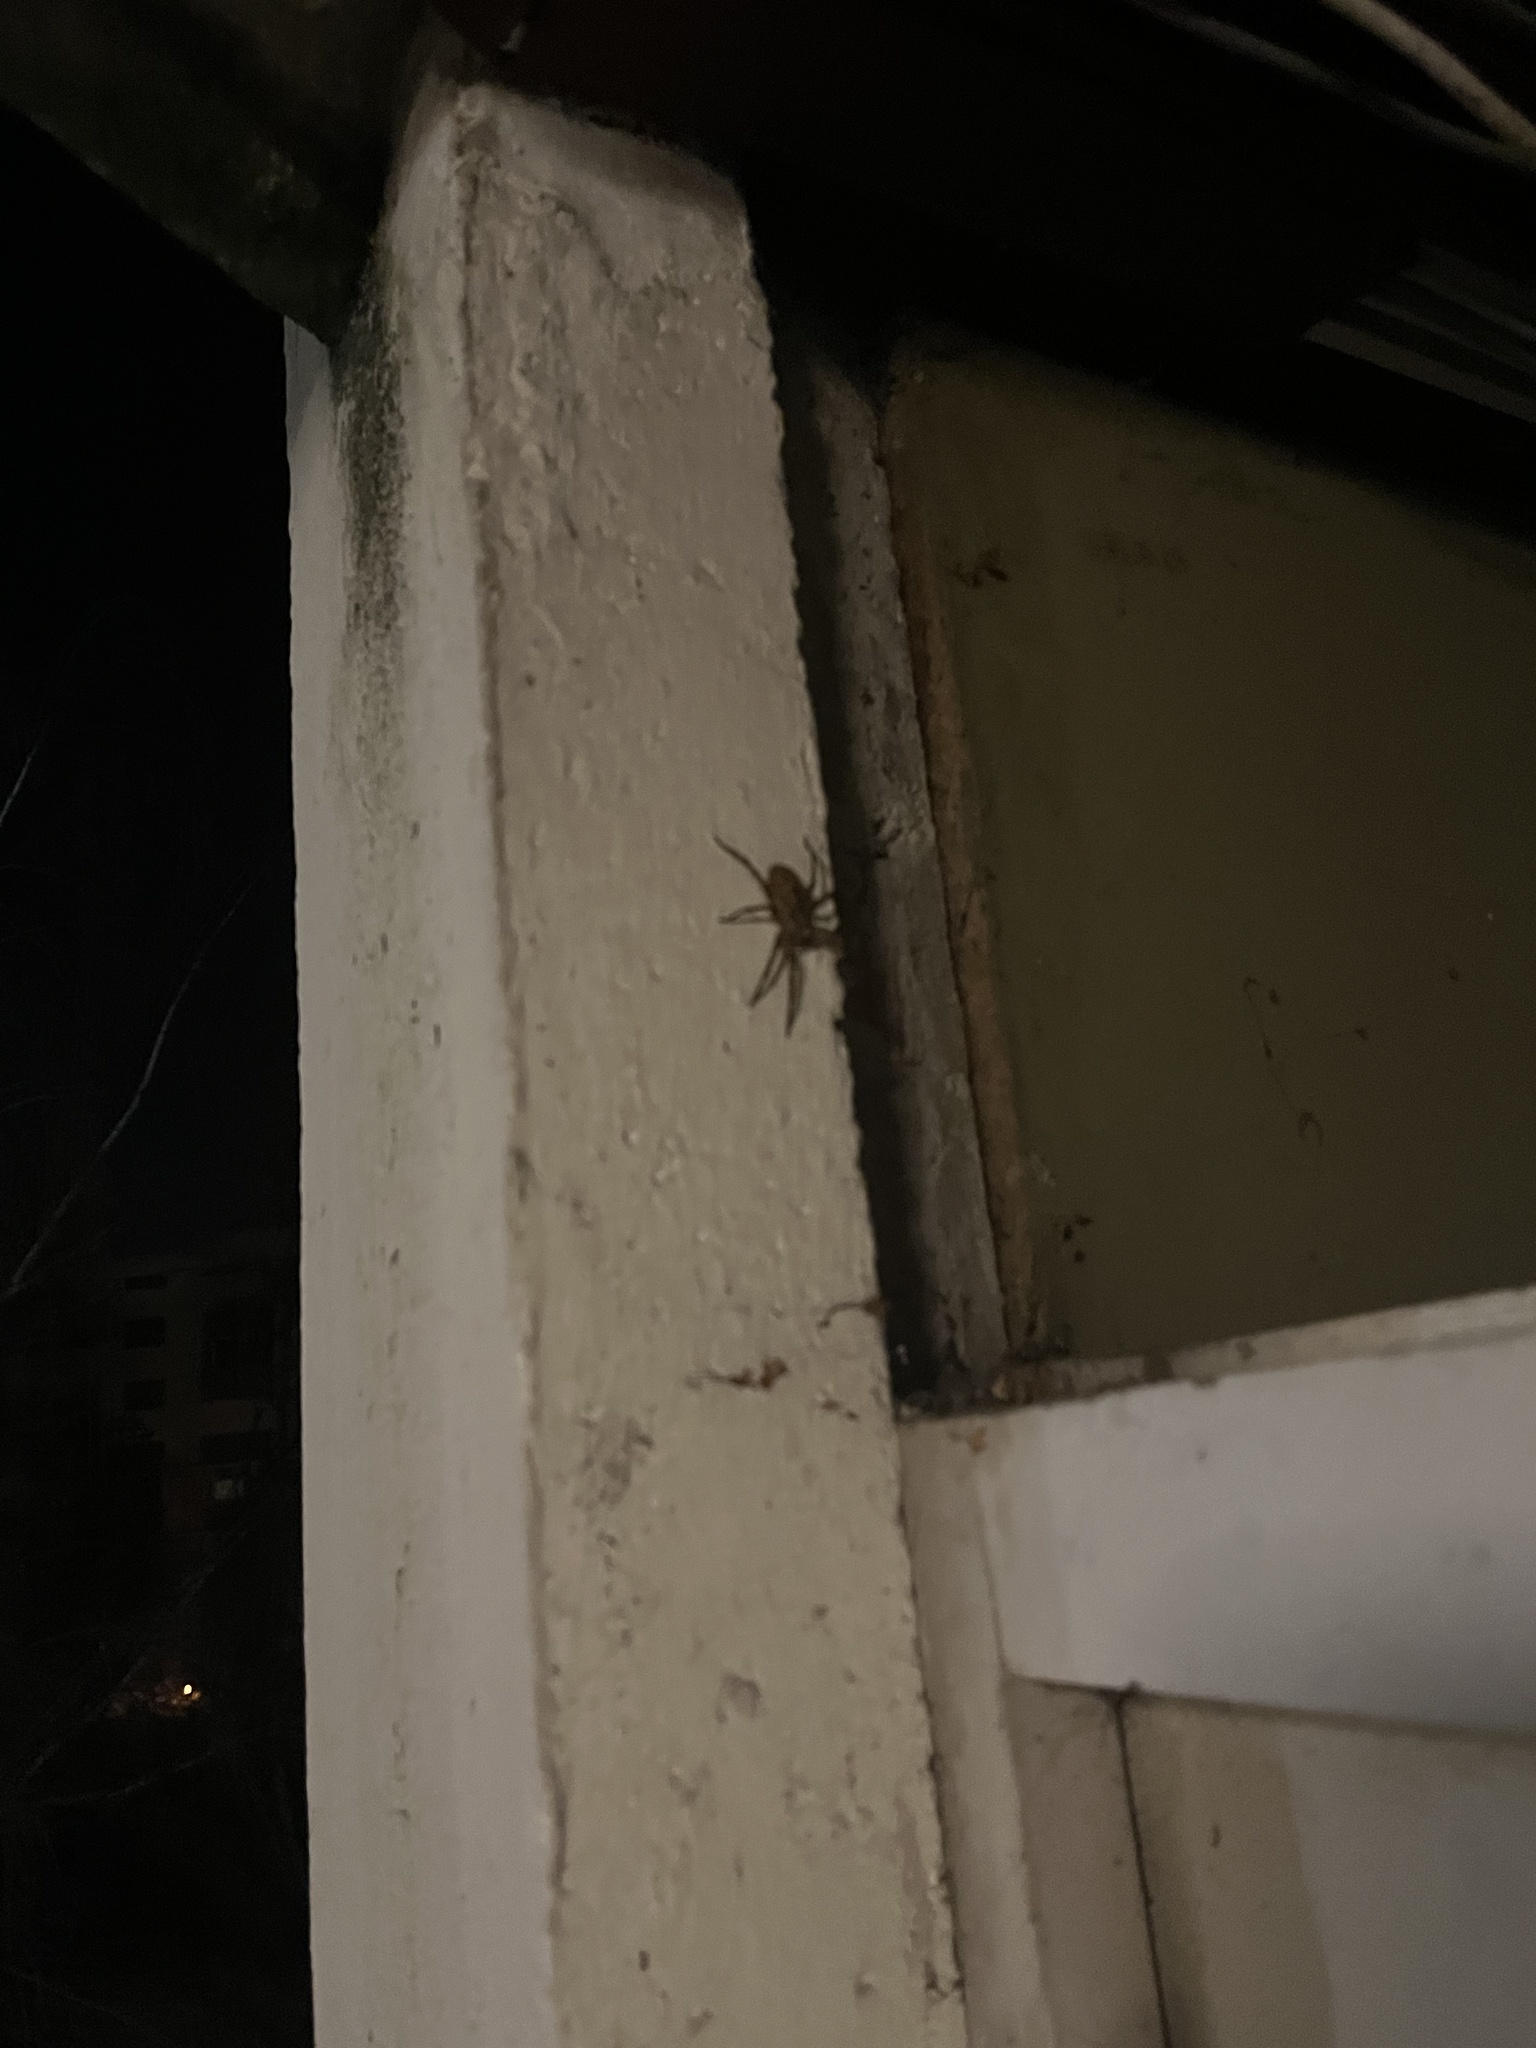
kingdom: Animalia
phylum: Arthropoda
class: Arachnida
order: Araneae
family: Zoropsidae
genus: Zoropsis
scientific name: Zoropsis spinimana
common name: Zoropsid spider
